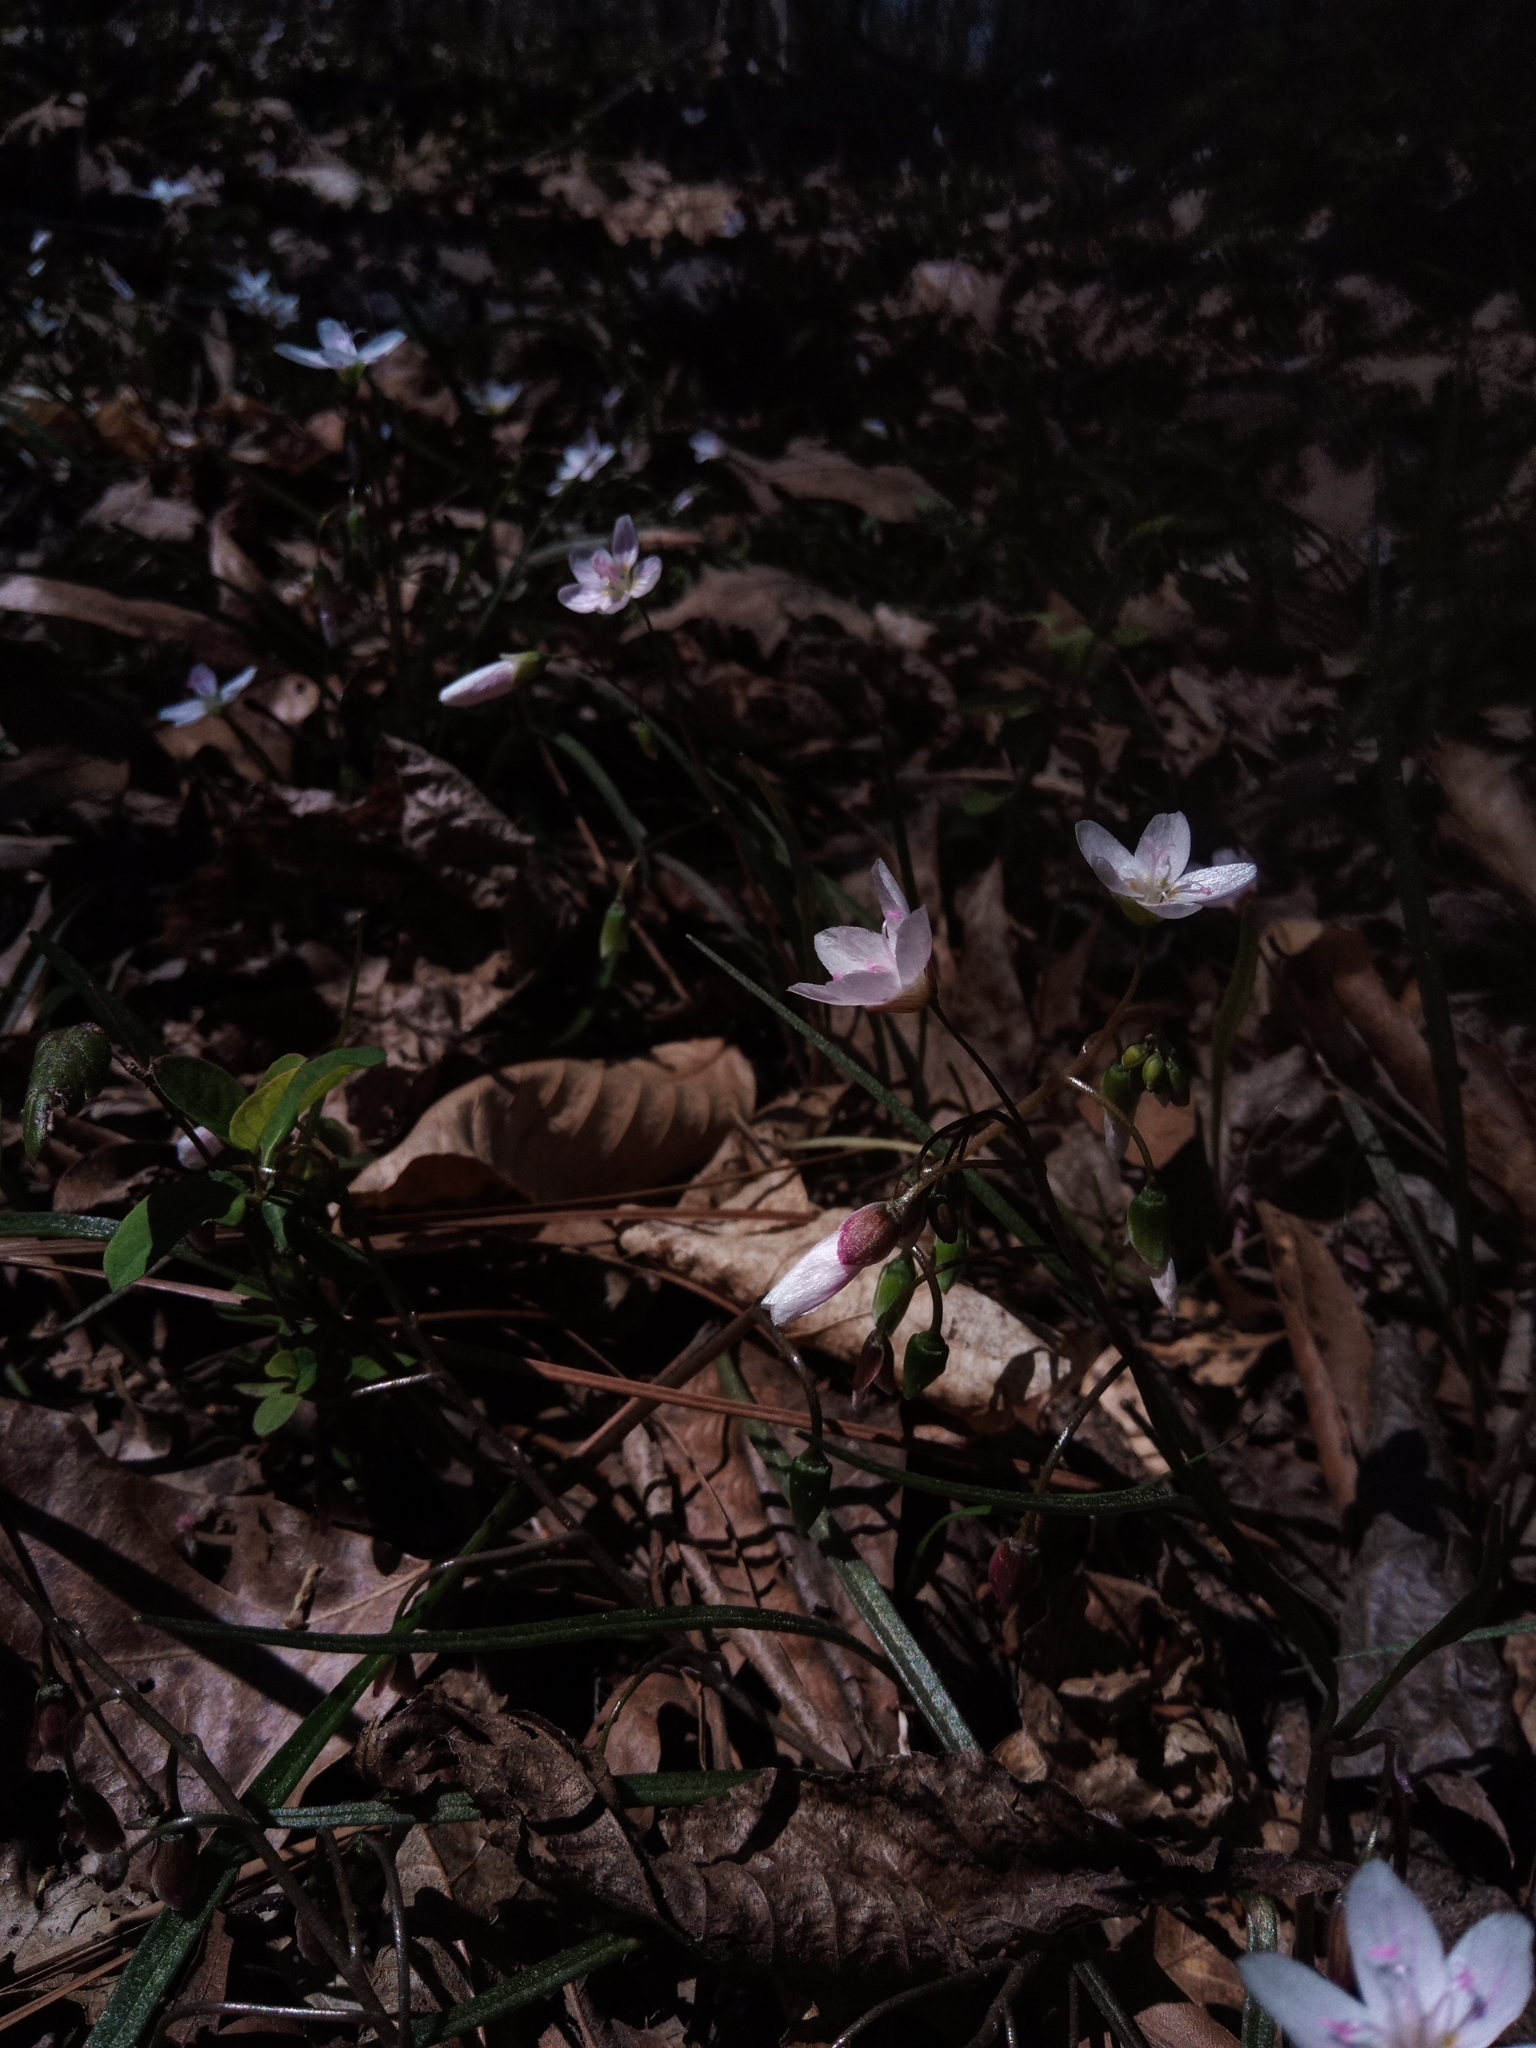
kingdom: Plantae
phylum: Tracheophyta
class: Magnoliopsida
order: Caryophyllales
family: Montiaceae
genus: Claytonia
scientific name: Claytonia virginica
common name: Virginia springbeauty
